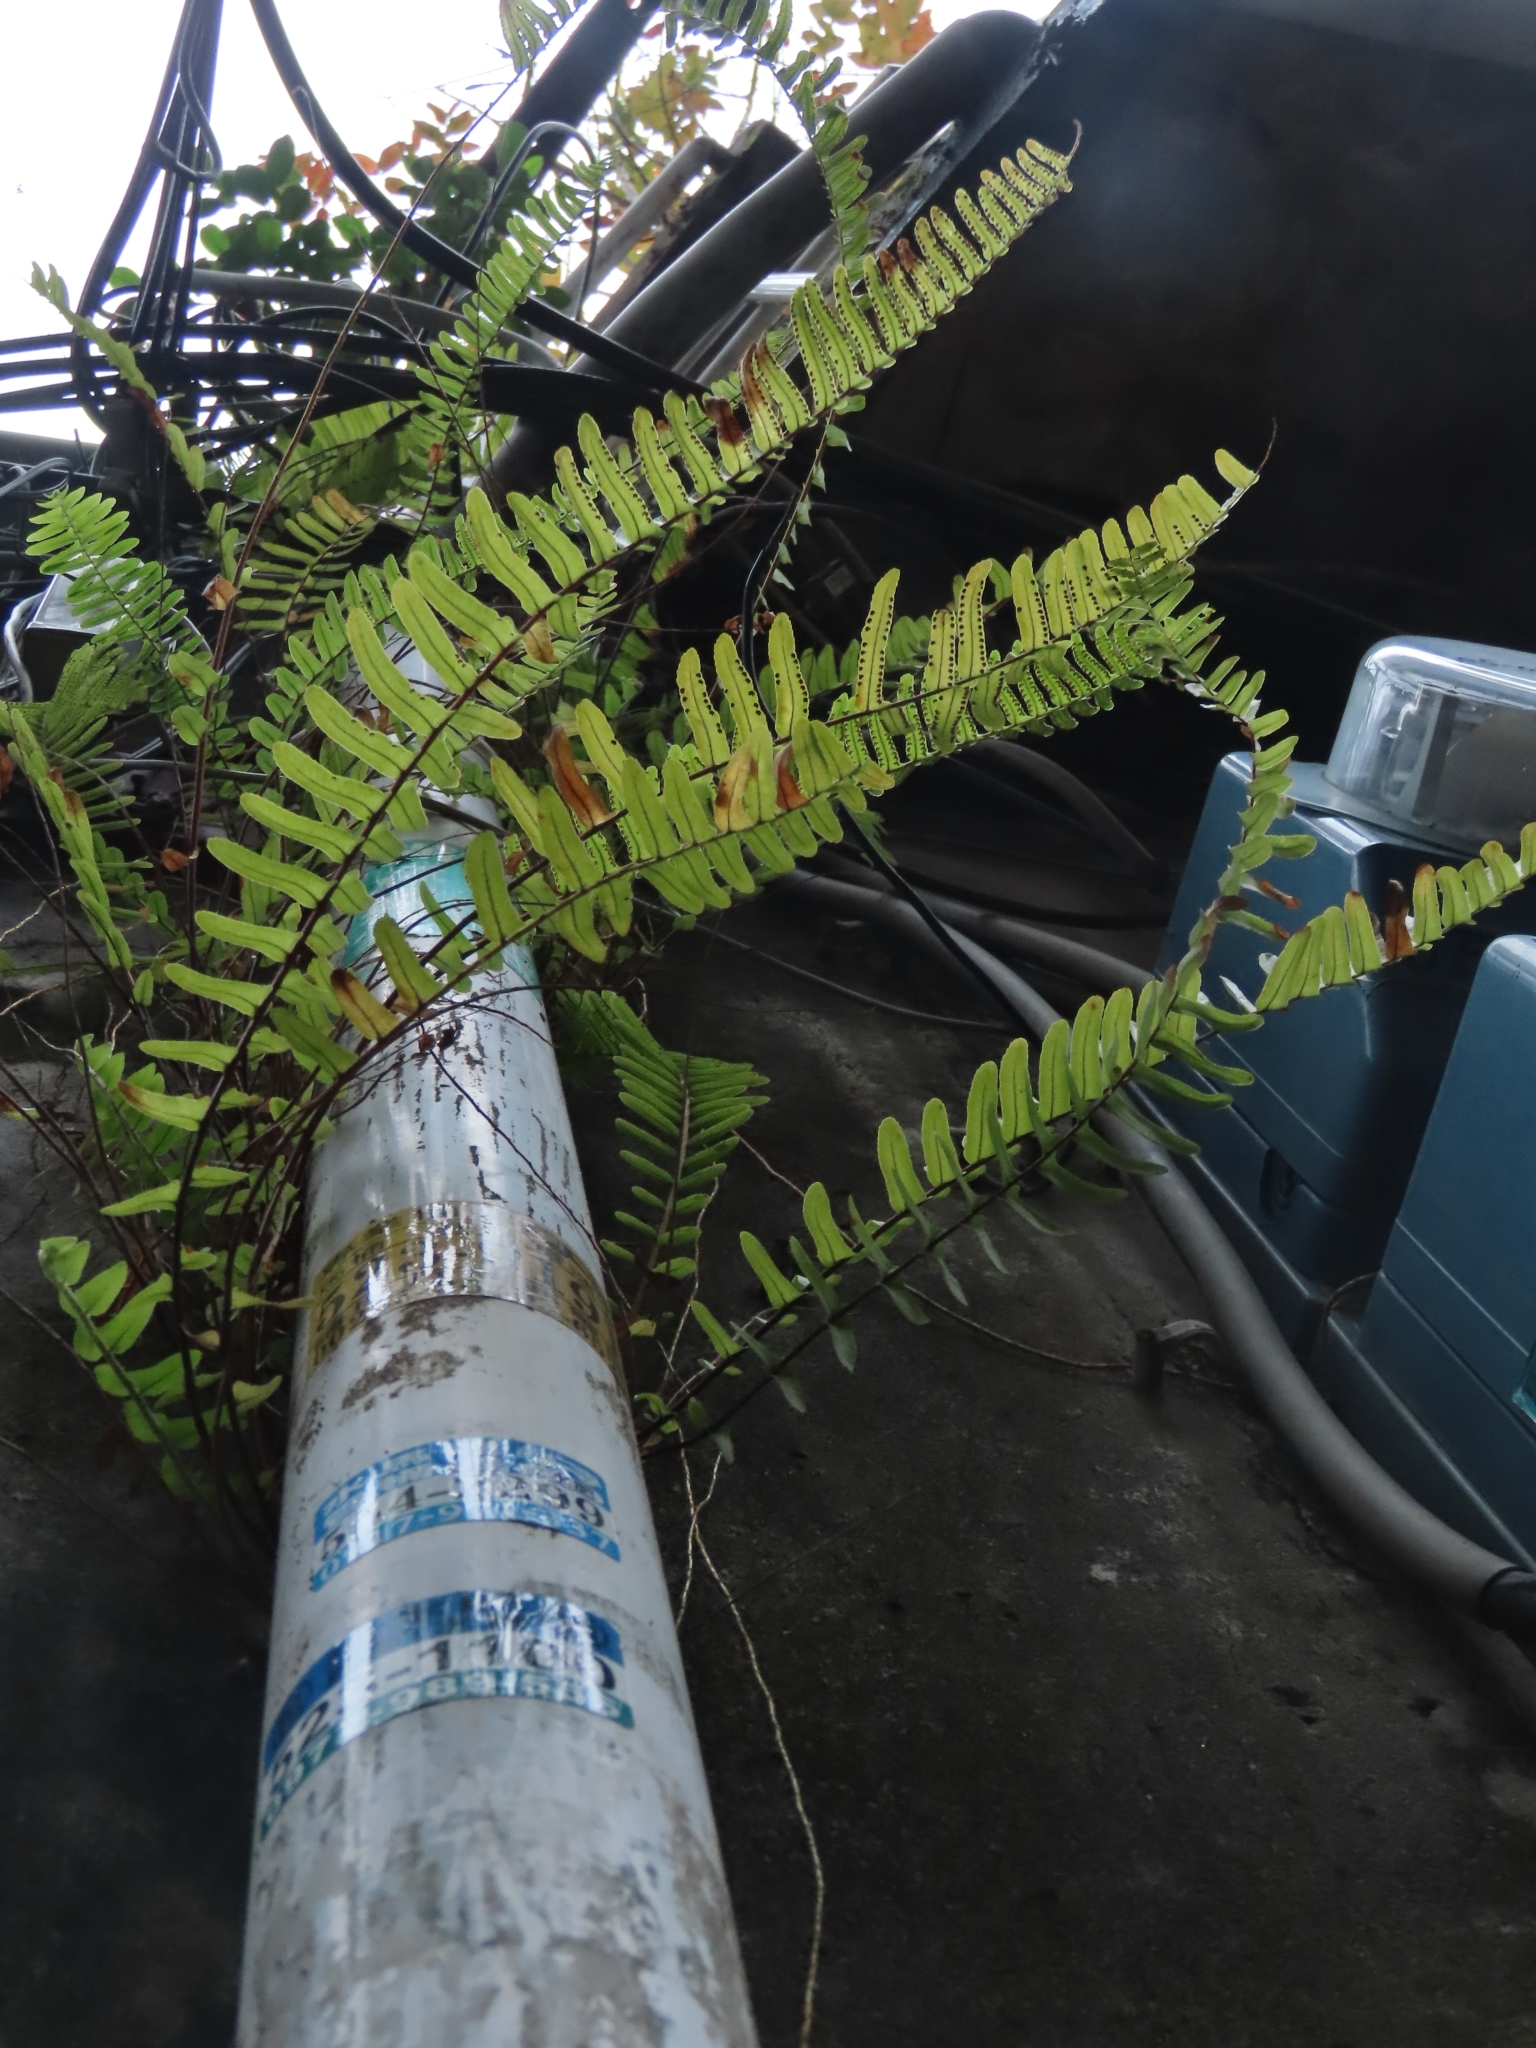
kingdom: Plantae
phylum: Tracheophyta
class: Polypodiopsida
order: Polypodiales
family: Nephrolepidaceae
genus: Nephrolepis
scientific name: Nephrolepis cordifolia
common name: Narrow swordfern
